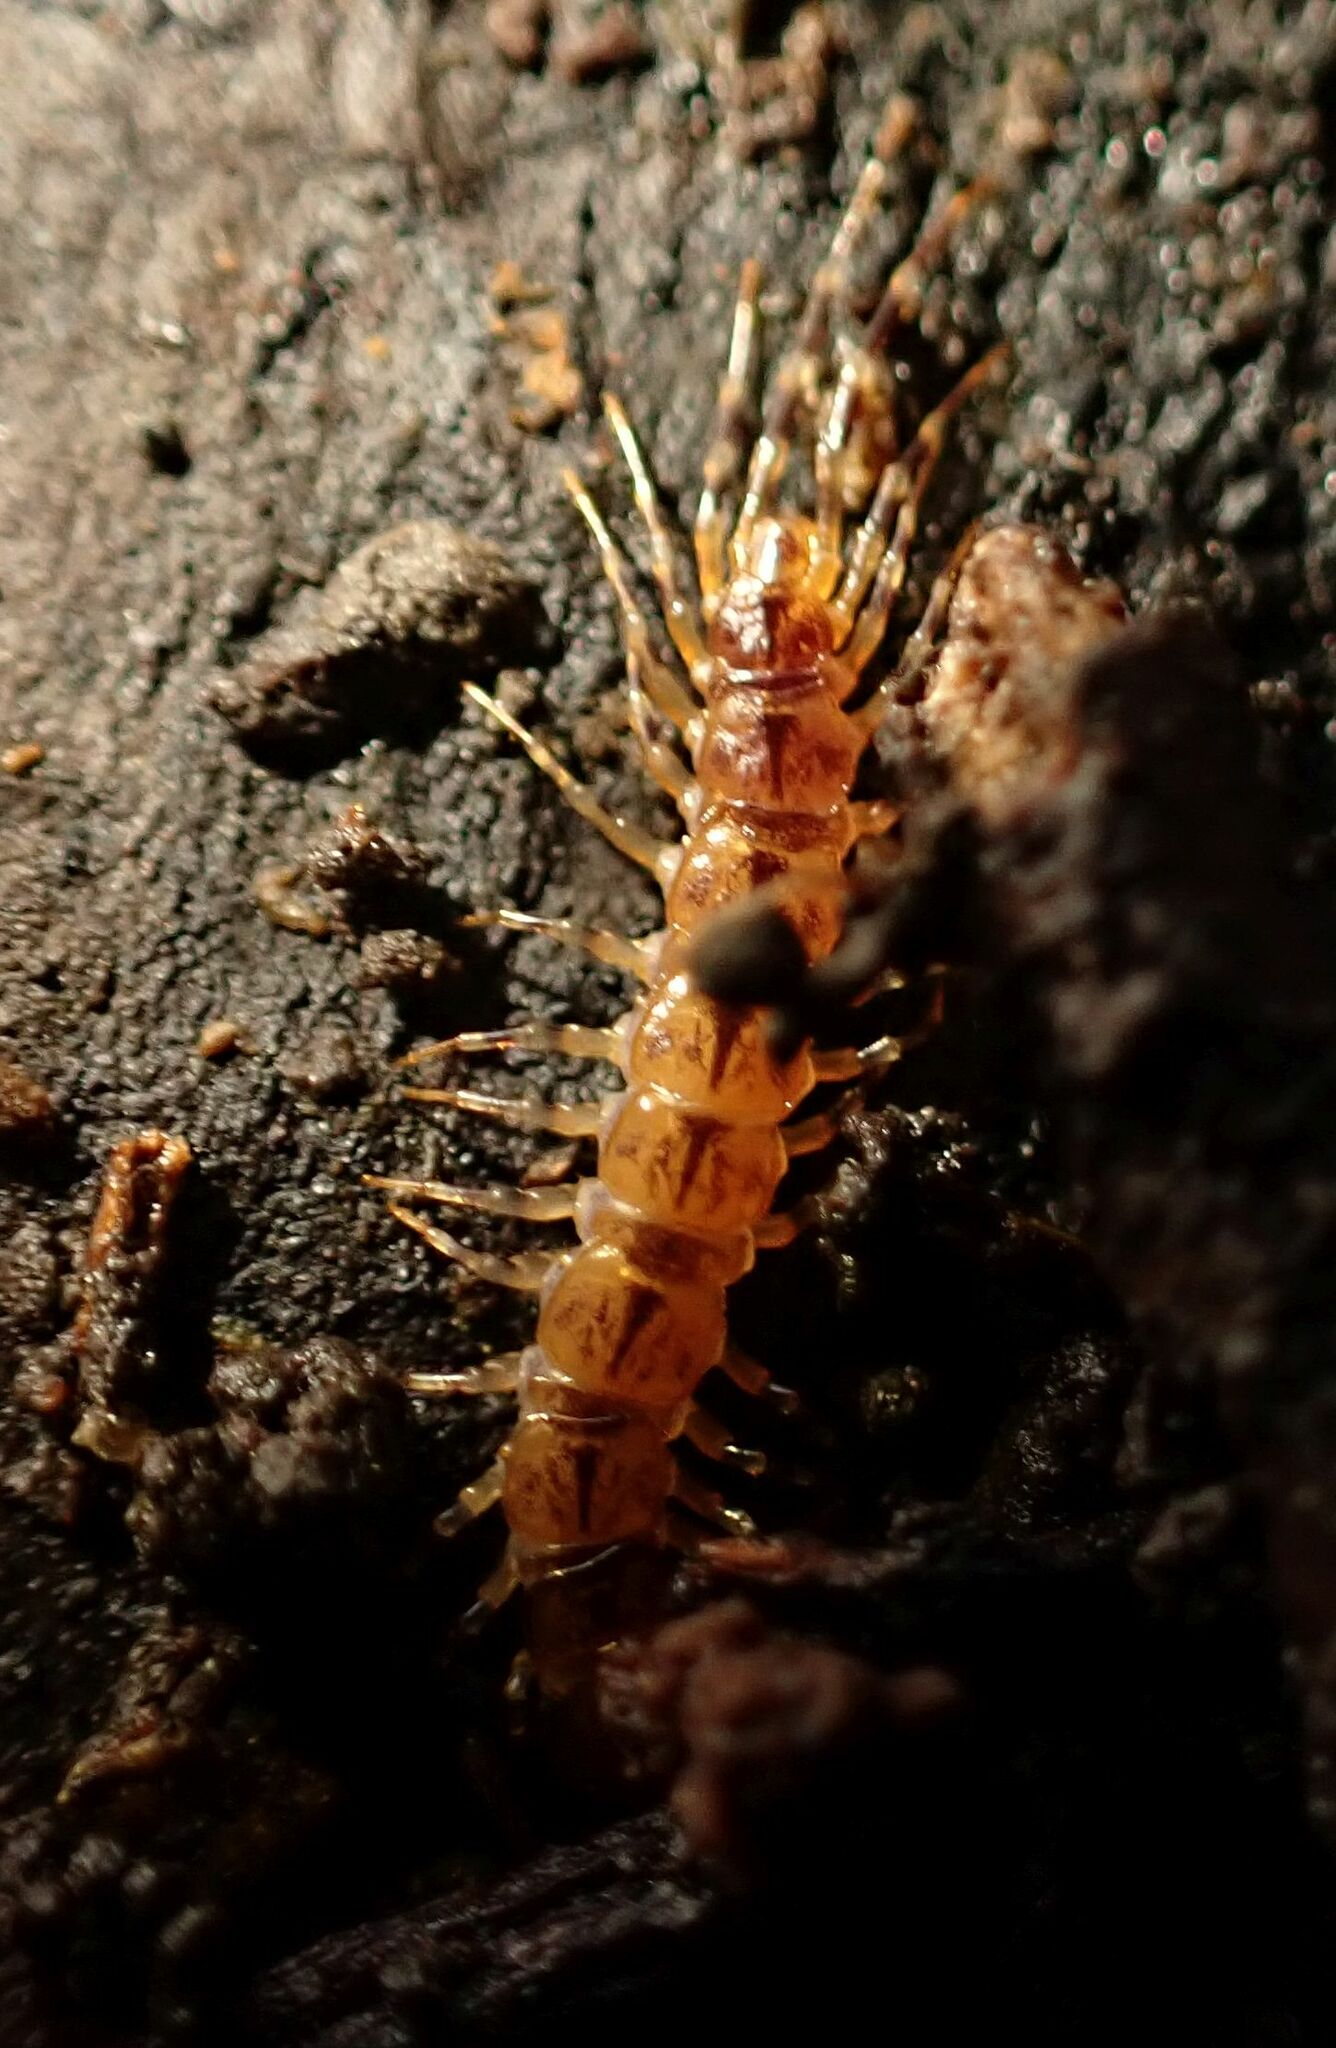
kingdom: Animalia
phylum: Arthropoda
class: Chilopoda
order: Lithobiomorpha
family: Lithobiidae
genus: Lithobius
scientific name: Lithobius variegatus
